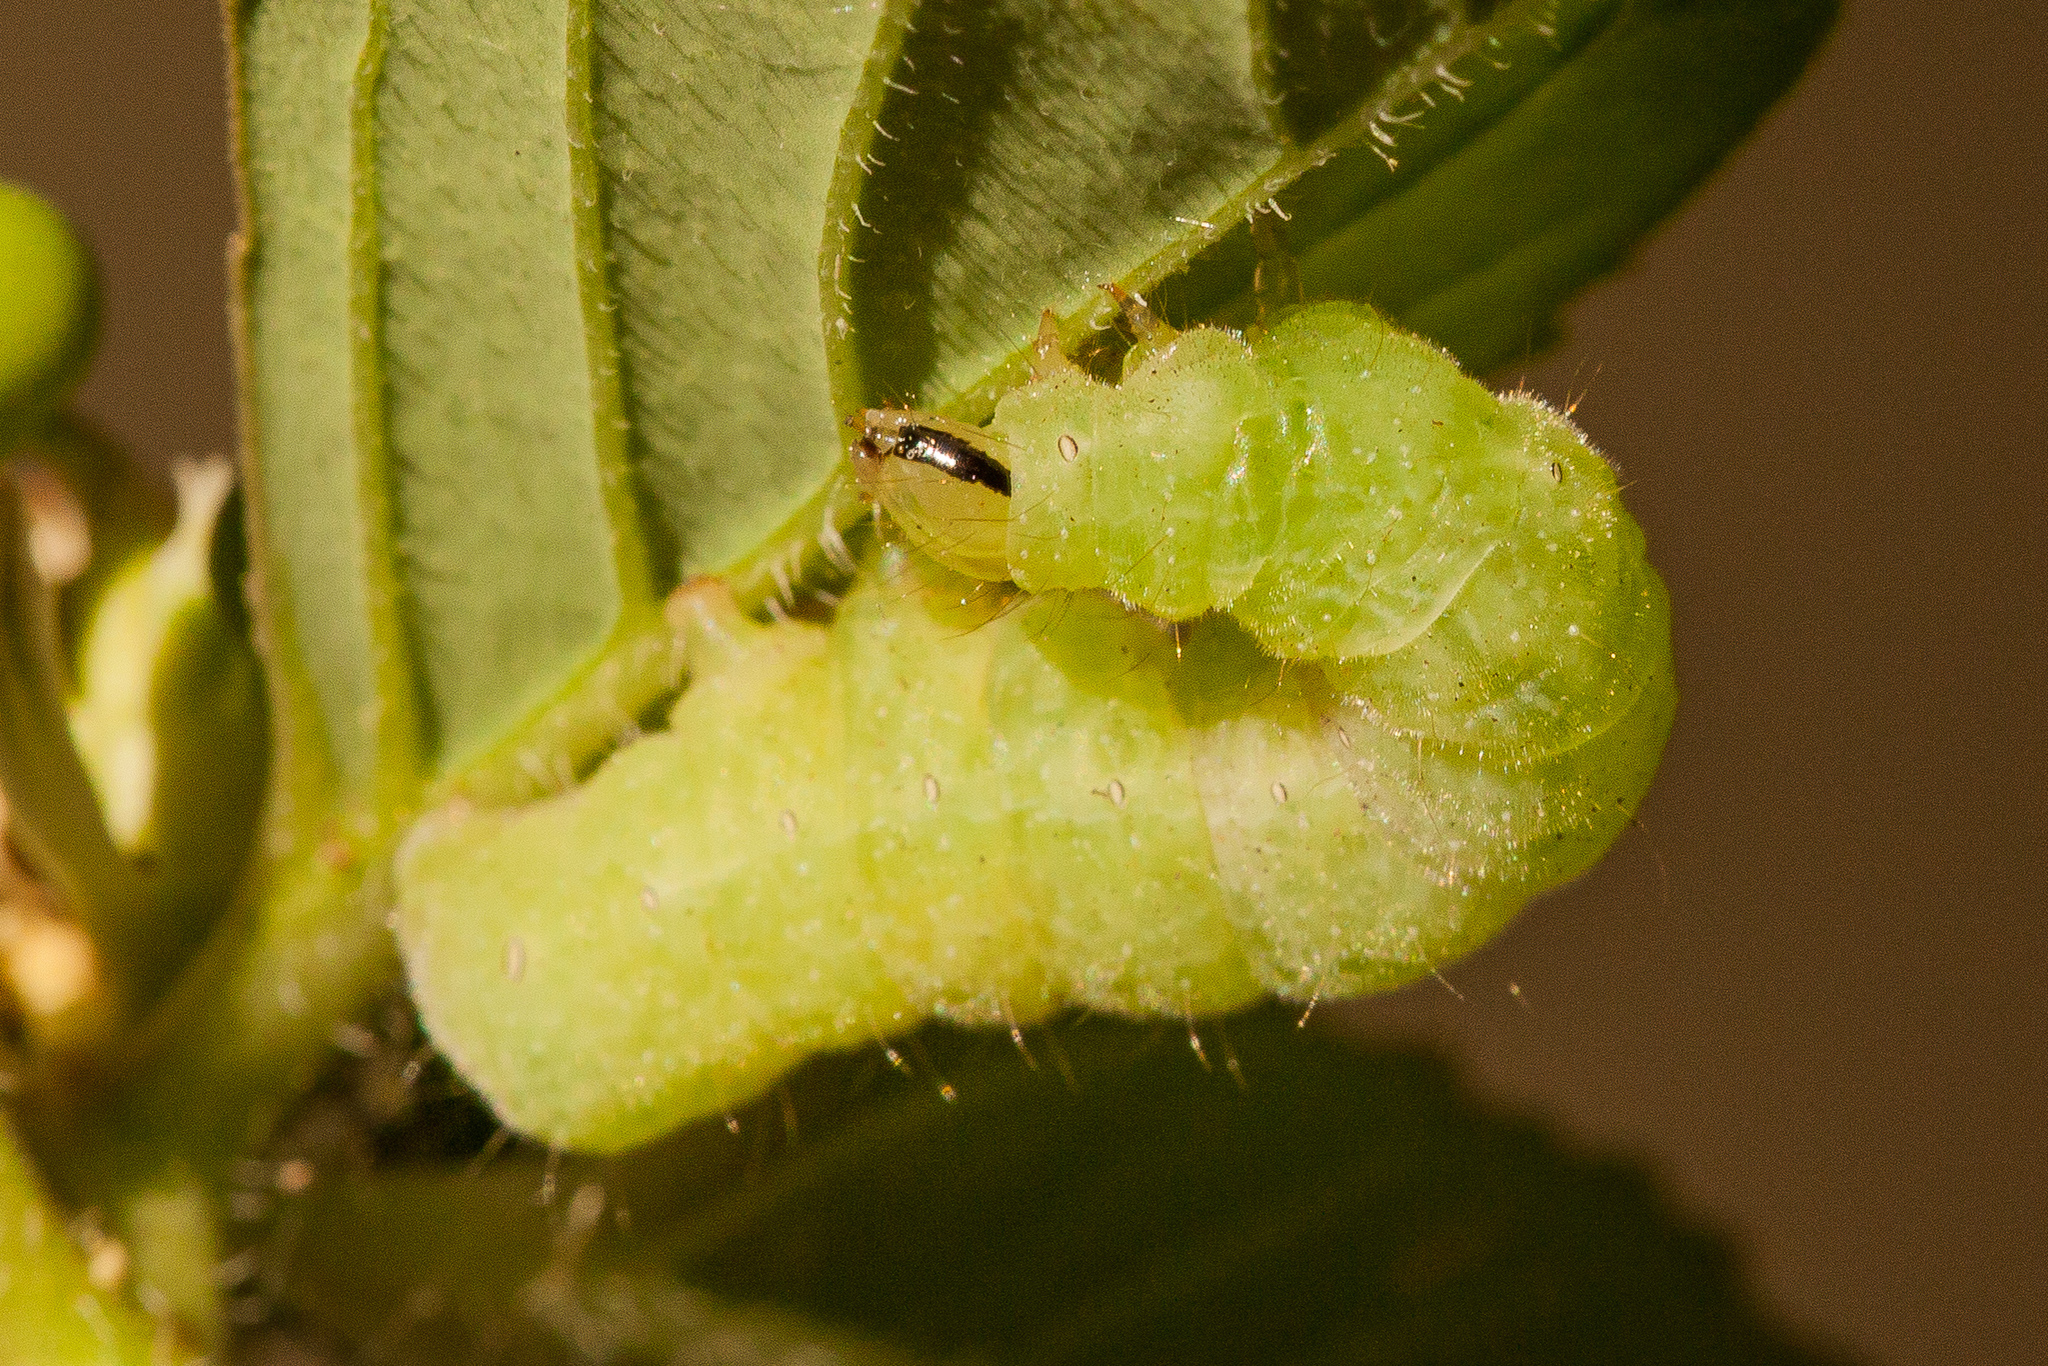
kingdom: Animalia
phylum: Arthropoda
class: Insecta
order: Lepidoptera
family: Noctuidae
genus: Megalographa
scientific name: Megalographa biloba
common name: Cutworm
